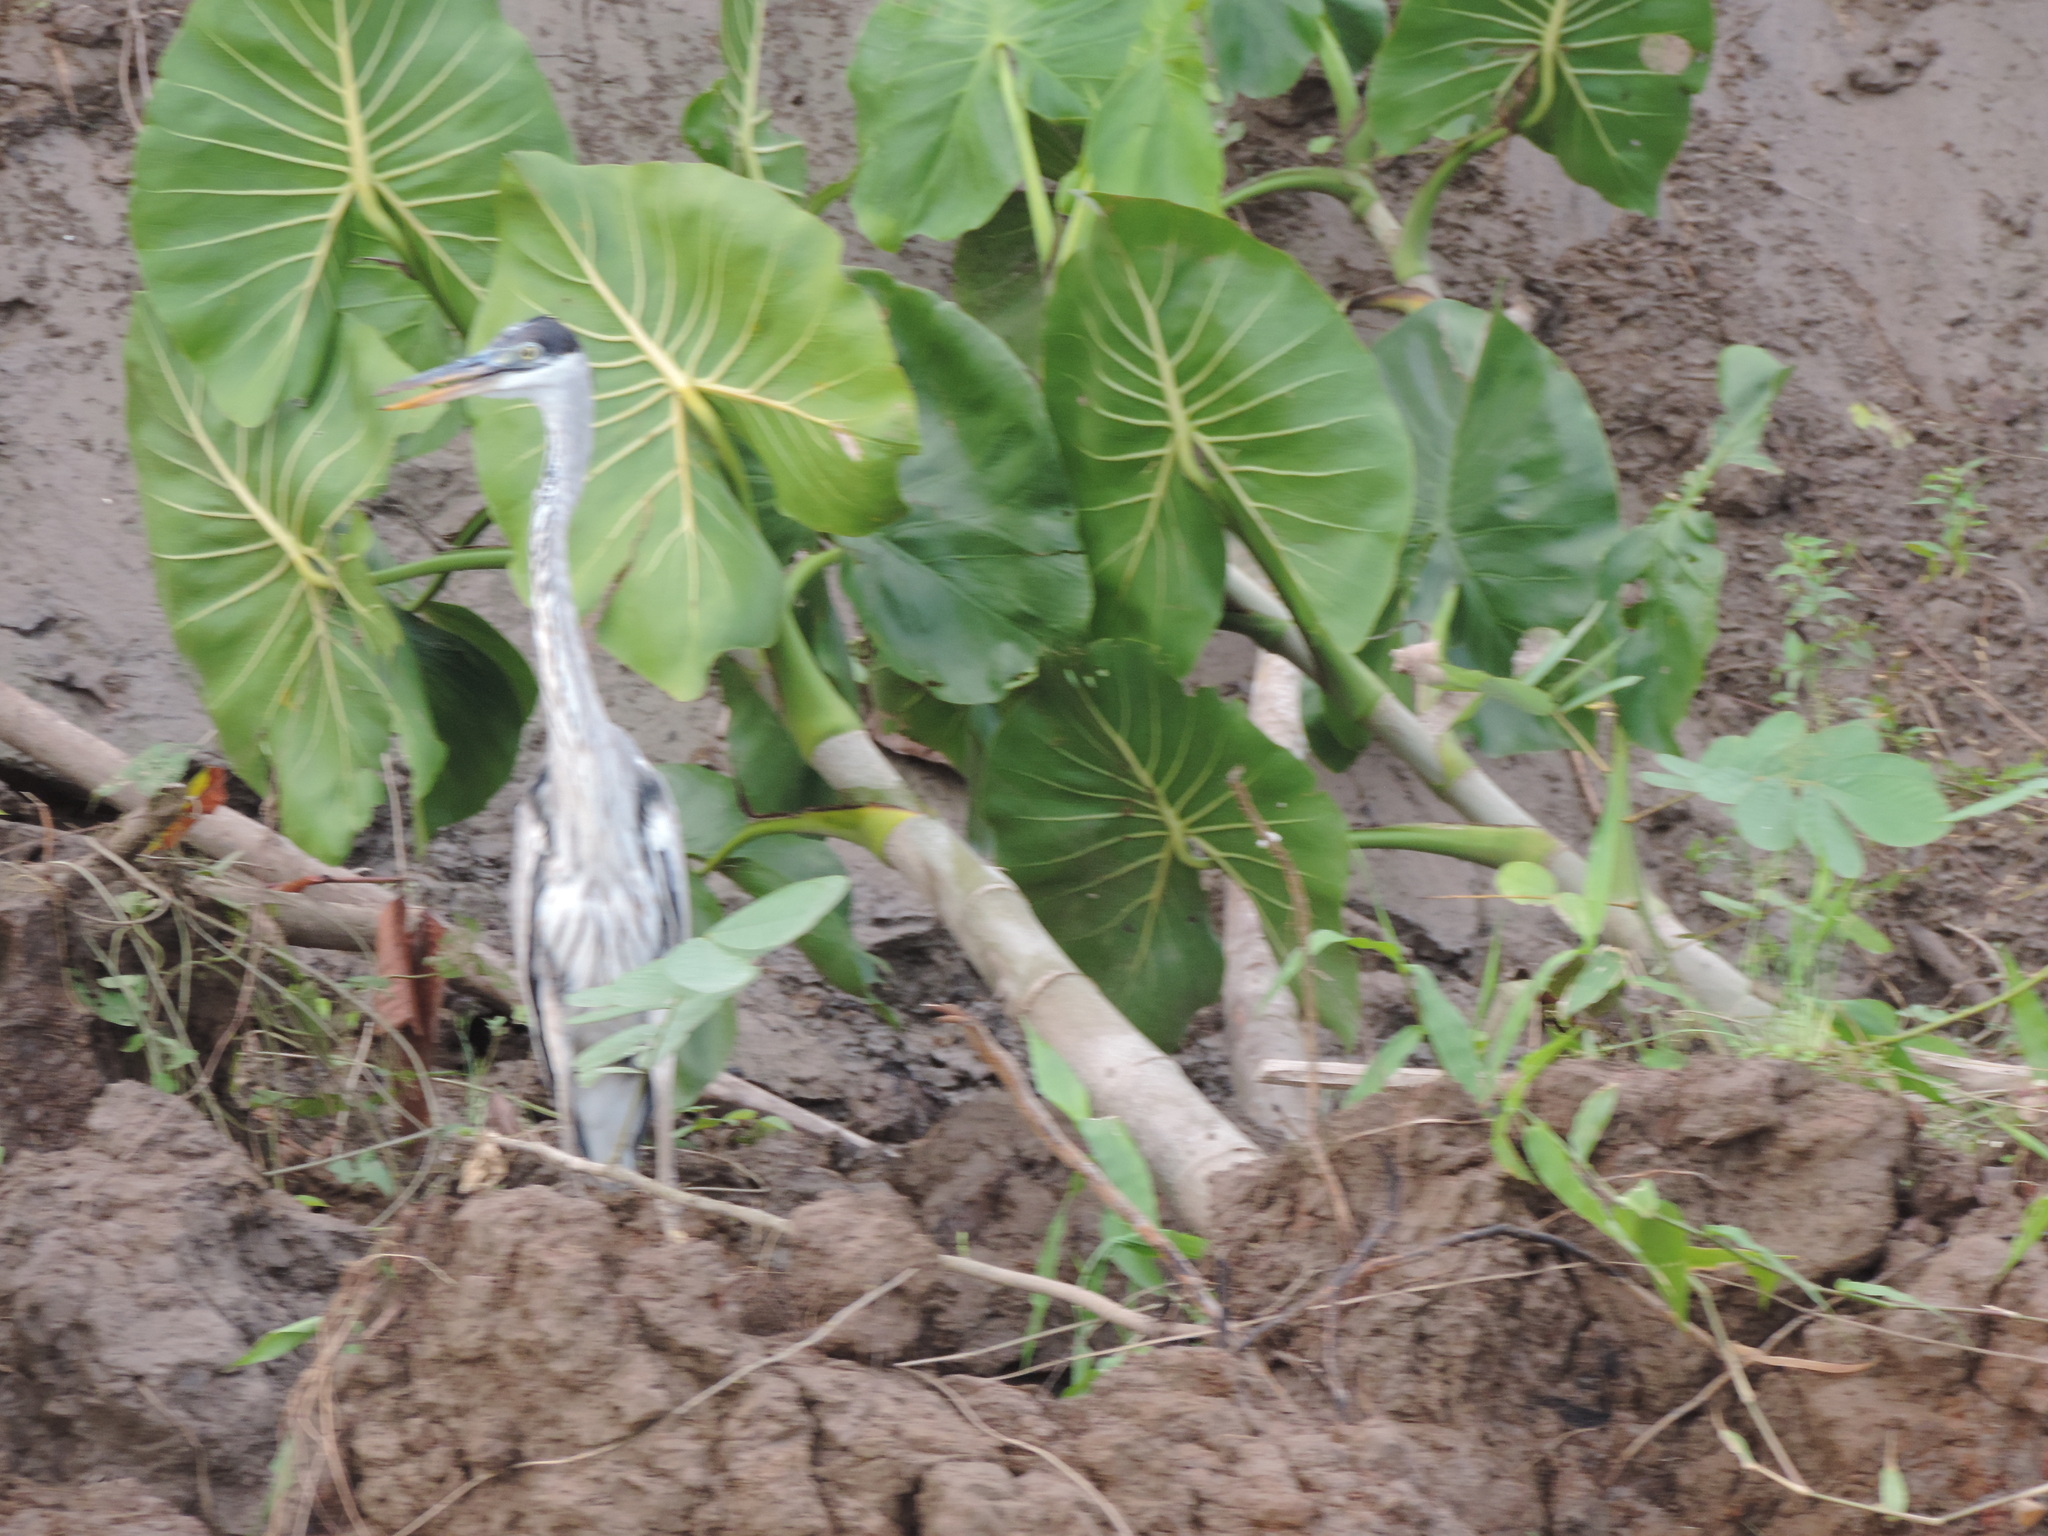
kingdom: Animalia
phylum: Chordata
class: Aves
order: Pelecaniformes
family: Ardeidae
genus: Ardea
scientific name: Ardea cocoi
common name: Cocoi heron
